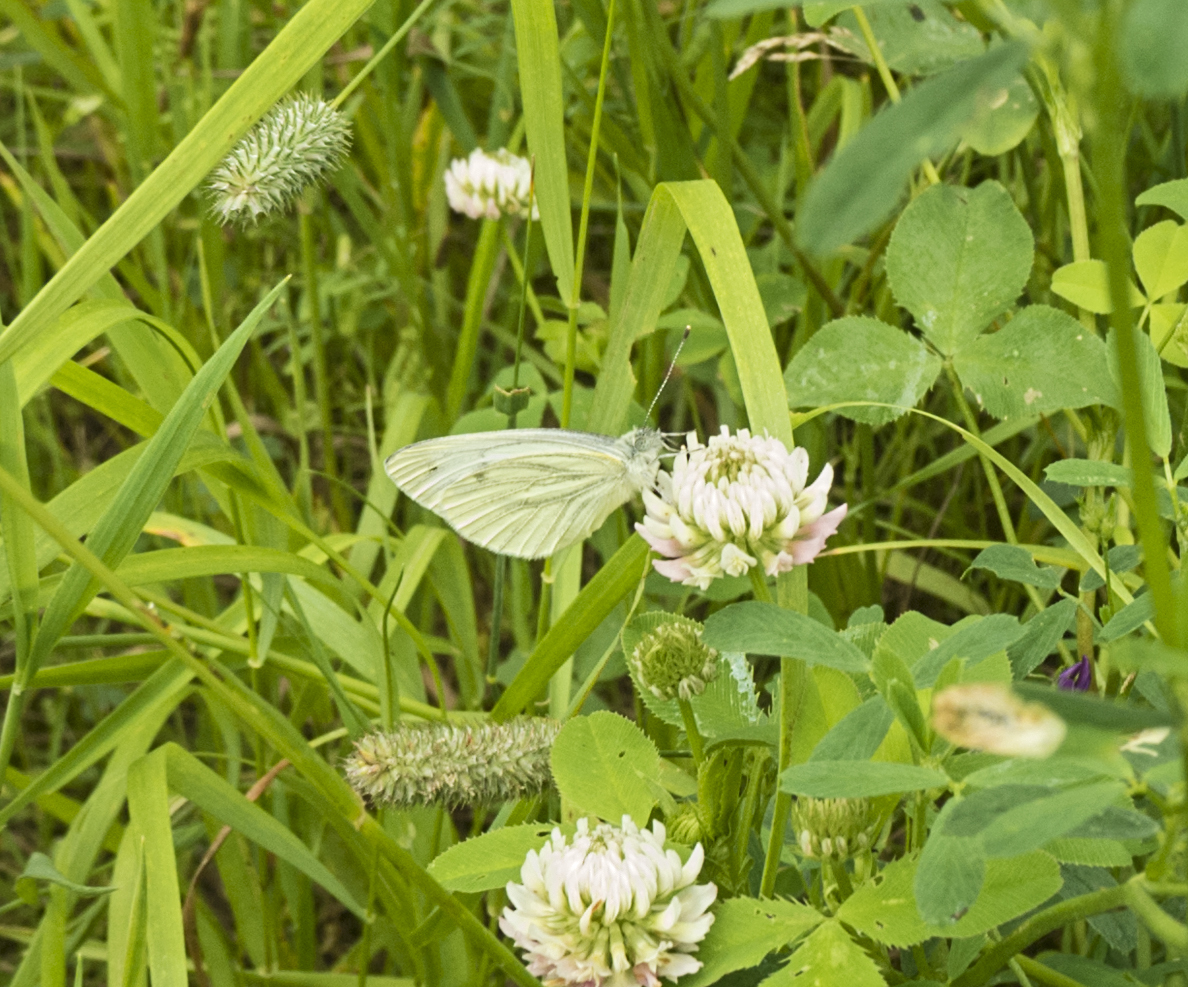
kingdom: Animalia
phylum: Arthropoda
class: Insecta
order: Lepidoptera
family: Pieridae
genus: Pieris
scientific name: Pieris napi
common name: Green-veined white
